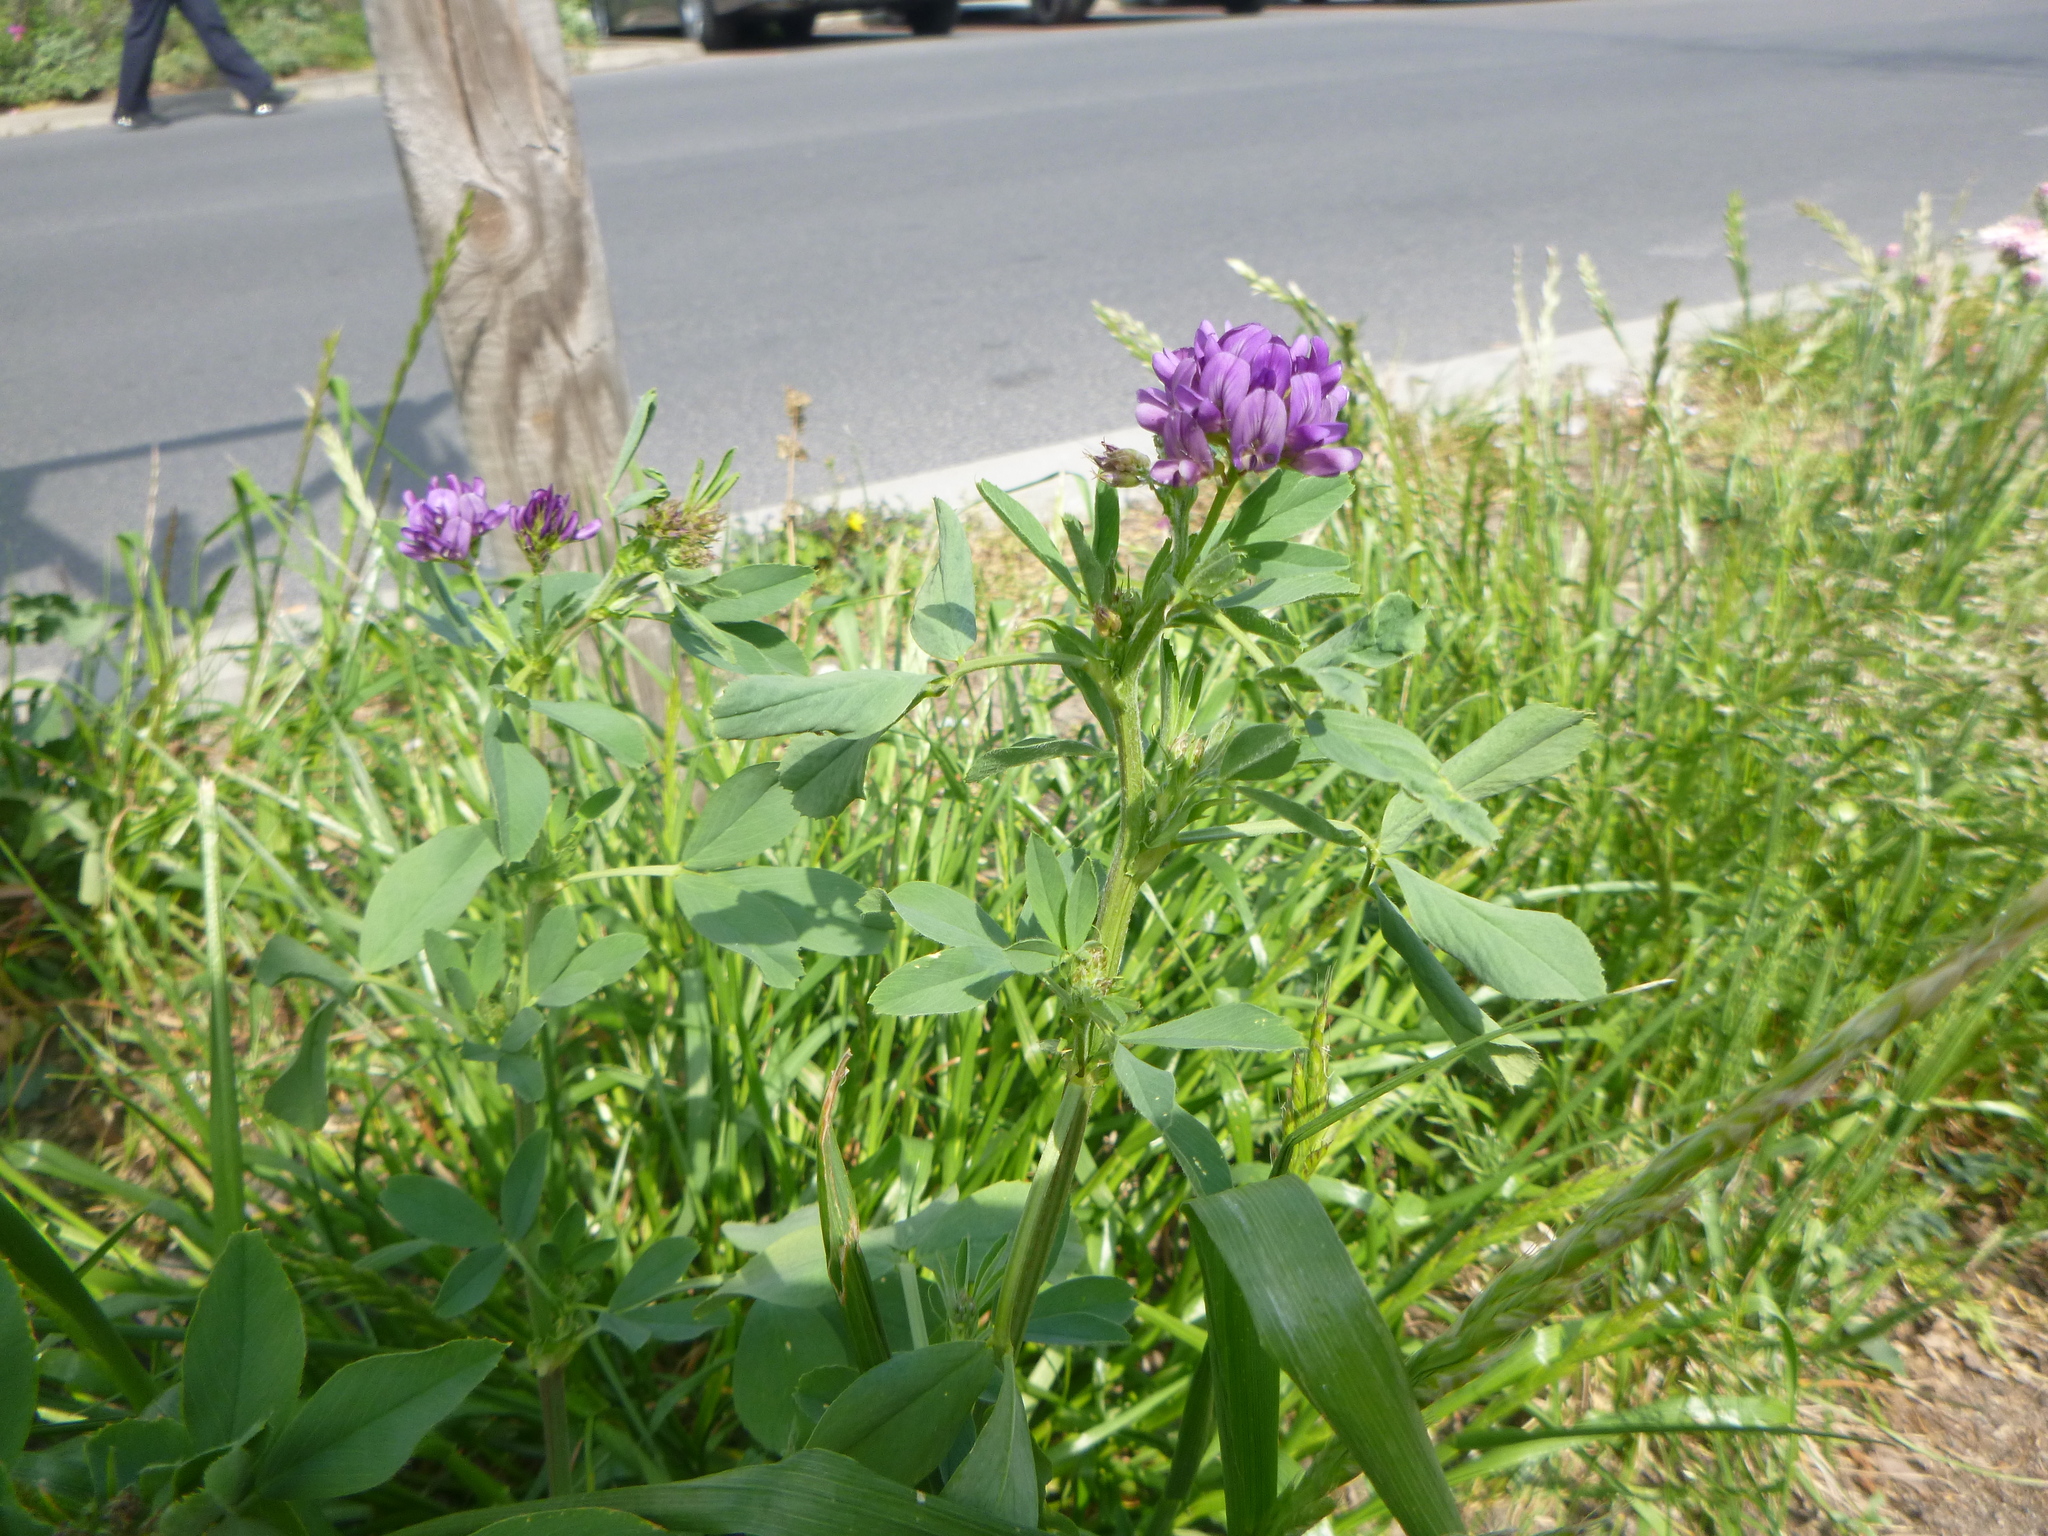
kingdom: Plantae
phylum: Tracheophyta
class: Magnoliopsida
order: Fabales
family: Fabaceae
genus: Medicago
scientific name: Medicago varia
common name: Sand lucerne
